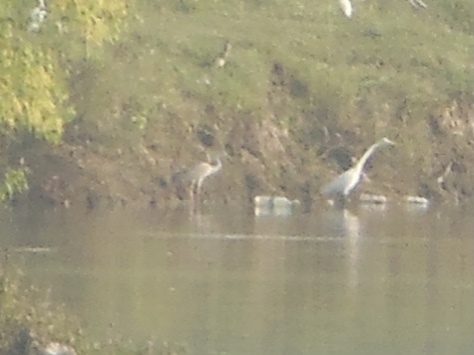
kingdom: Animalia
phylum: Chordata
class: Aves
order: Pelecaniformes
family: Ardeidae
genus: Ardea
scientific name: Ardea alba
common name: Great egret
